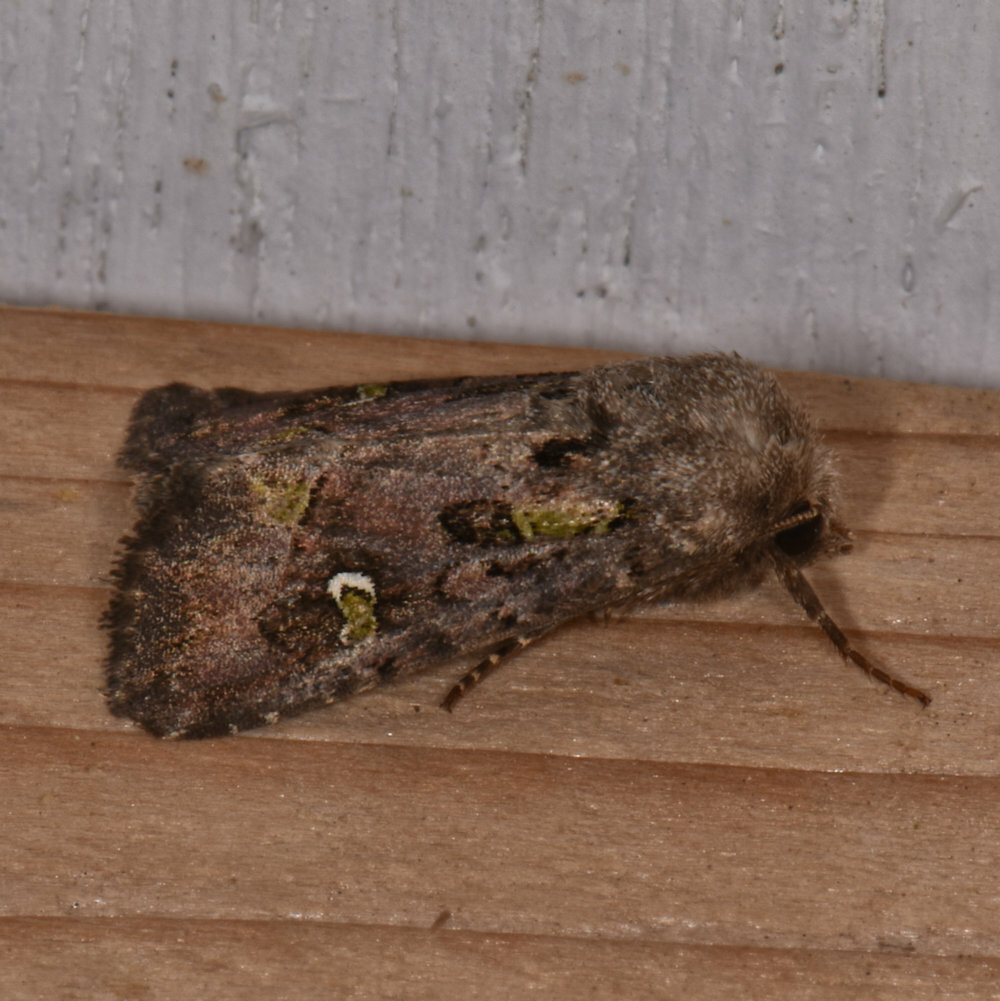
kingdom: Animalia
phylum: Arthropoda
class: Insecta
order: Lepidoptera
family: Noctuidae
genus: Lacinipolia
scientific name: Lacinipolia renigera
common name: Kidney-spotted minor
